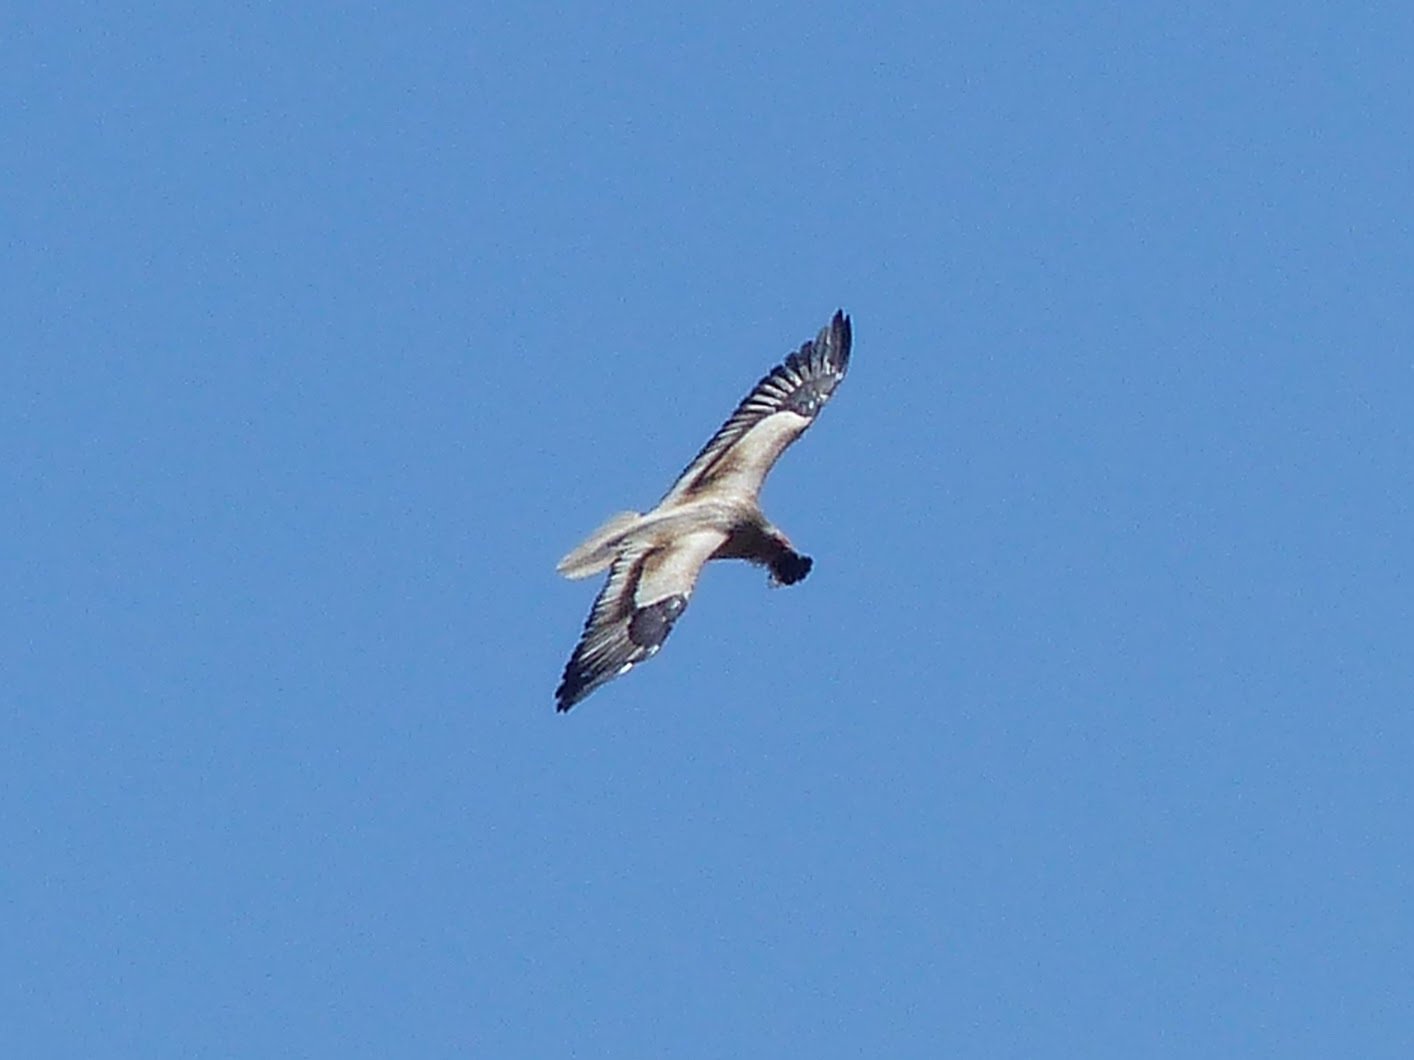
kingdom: Animalia
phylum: Chordata
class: Aves
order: Accipitriformes
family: Accipitridae
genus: Neophron
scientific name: Neophron percnopterus
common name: Egyptian vulture
